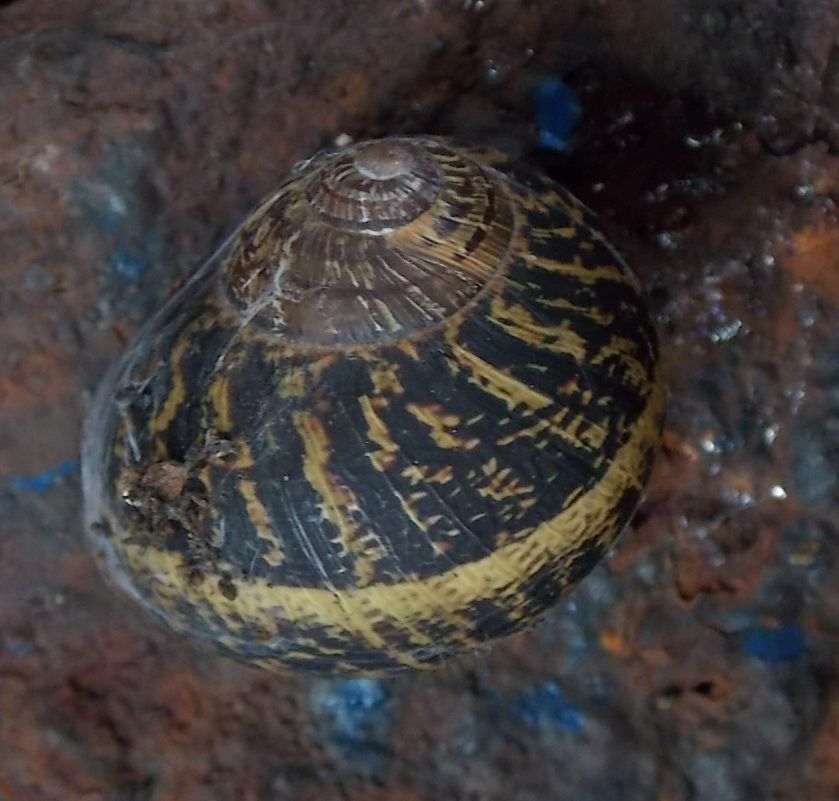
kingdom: Animalia
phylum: Mollusca
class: Gastropoda
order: Stylommatophora
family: Helicidae
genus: Cornu
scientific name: Cornu aspersum
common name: Brown garden snail
